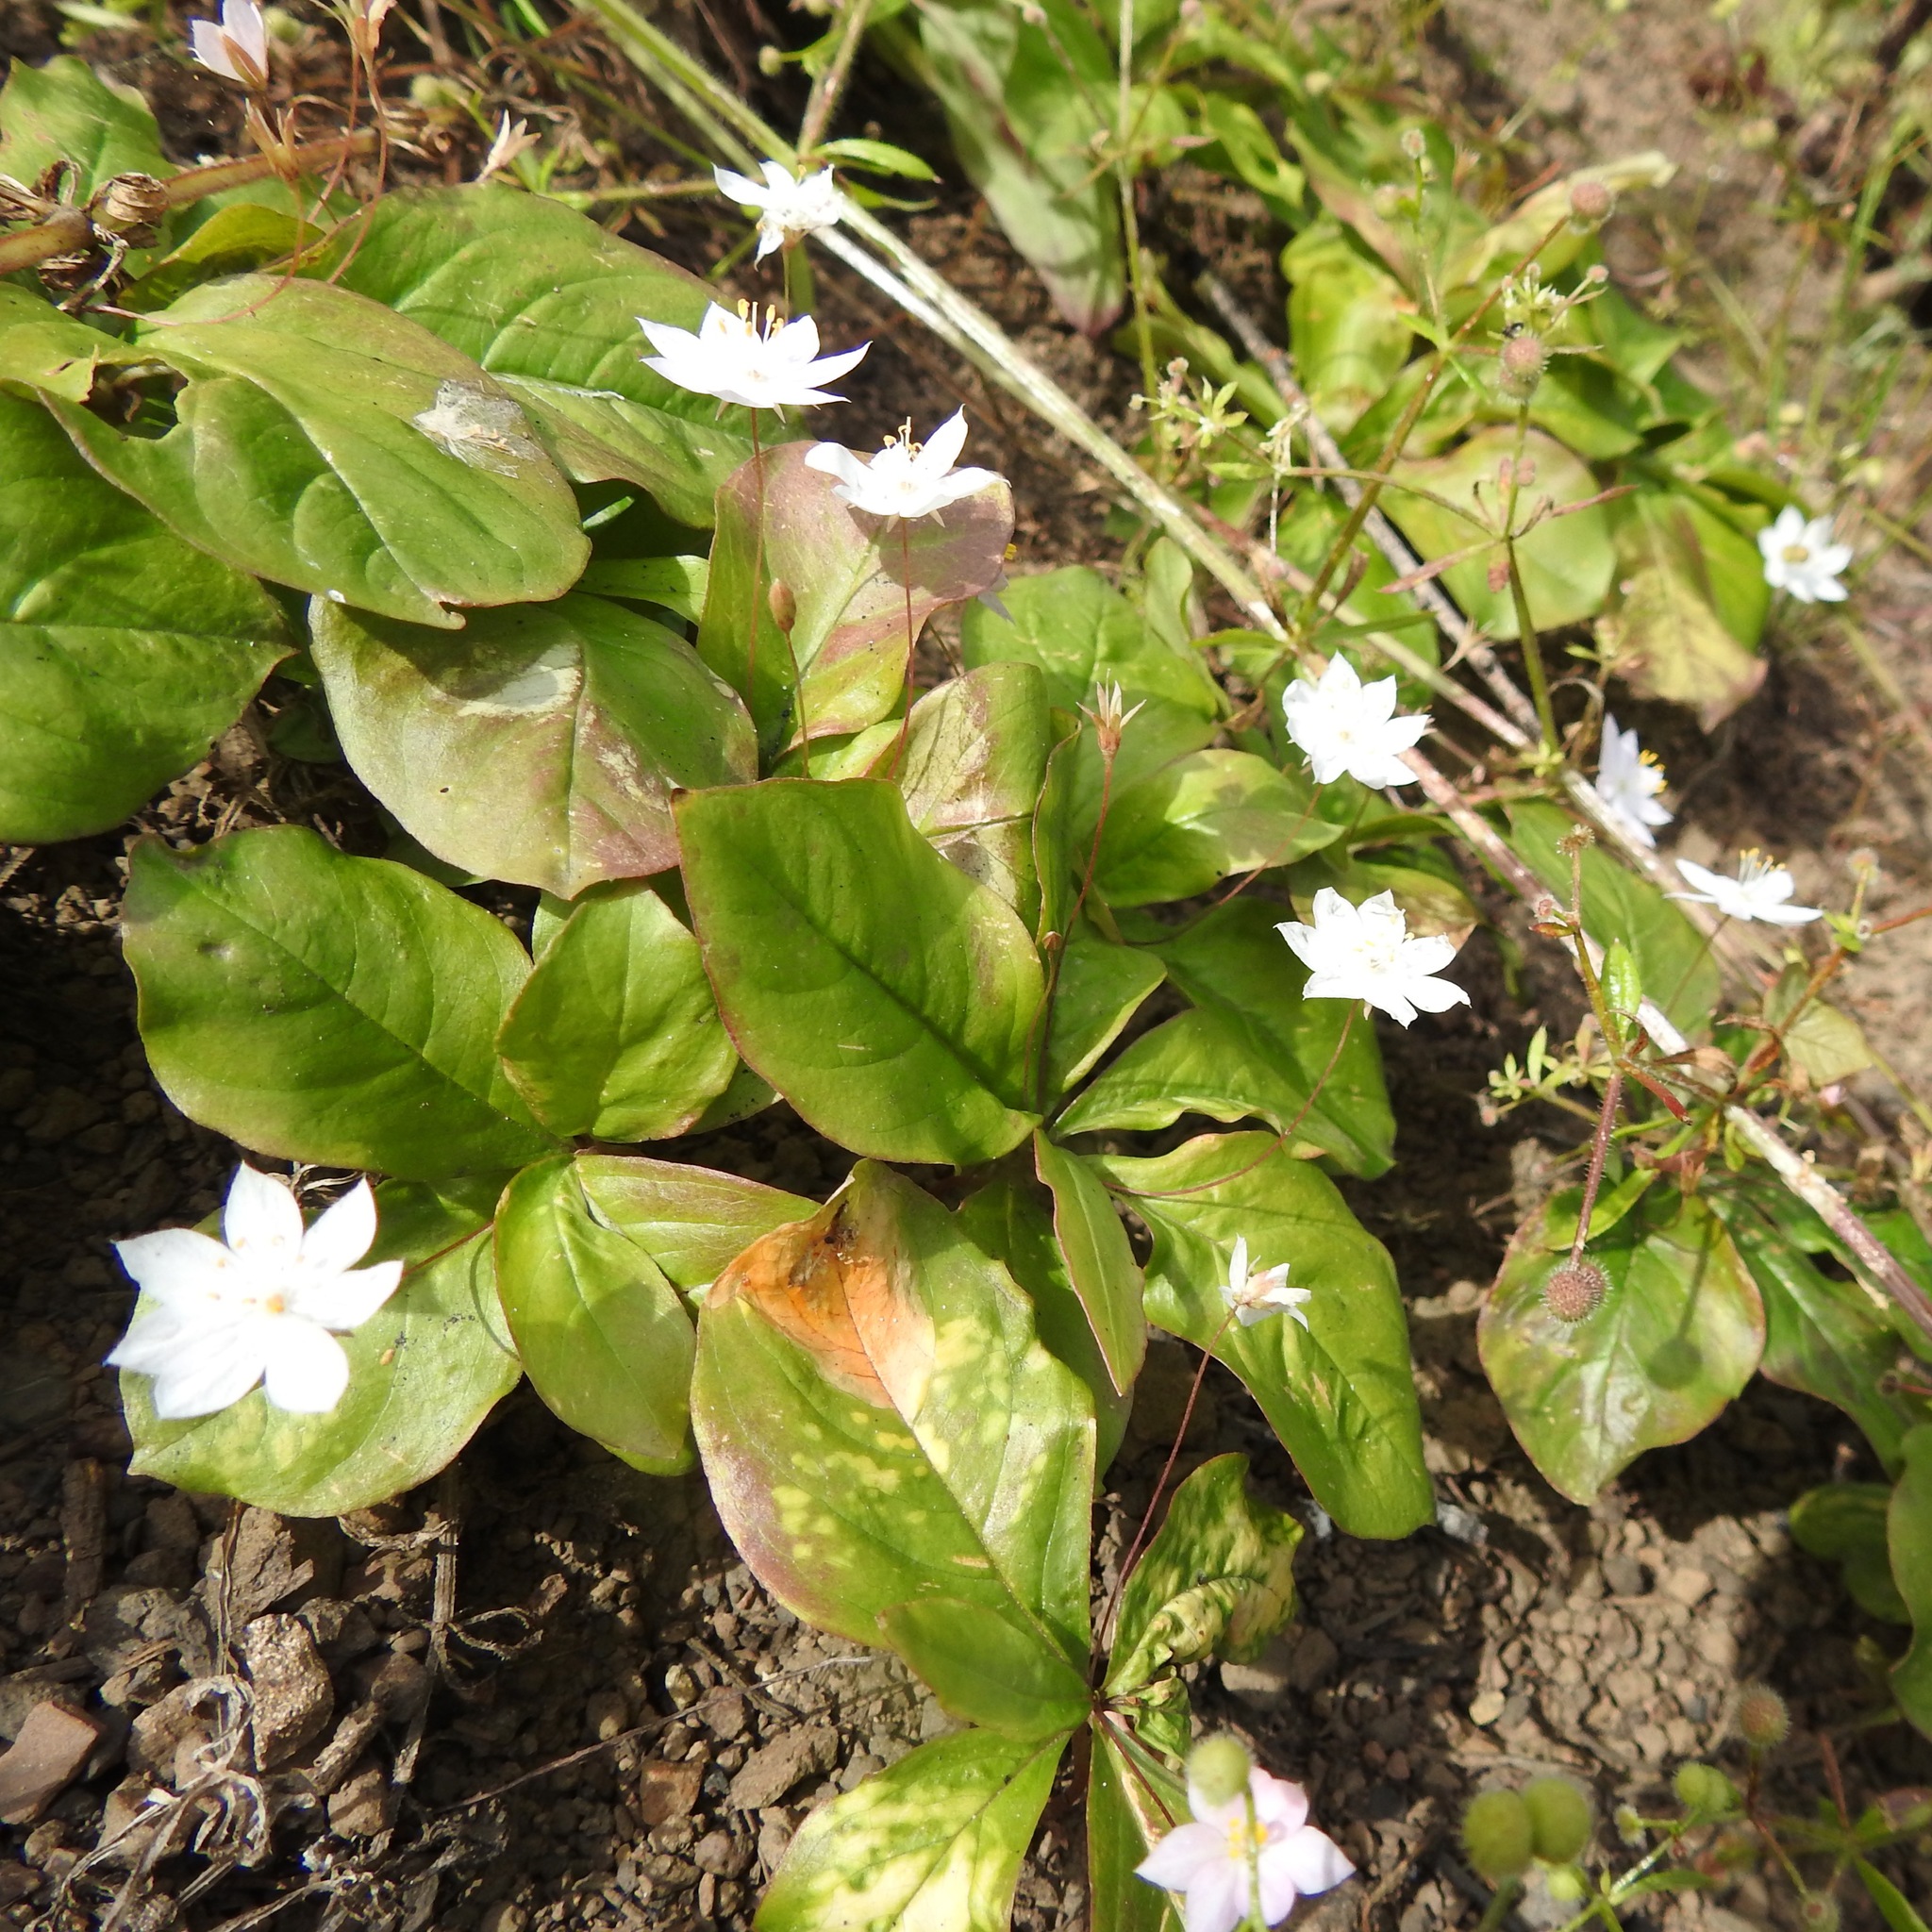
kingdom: Plantae
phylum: Tracheophyta
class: Magnoliopsida
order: Ericales
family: Primulaceae
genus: Lysimachia
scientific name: Lysimachia latifolia
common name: Pacific starflower
